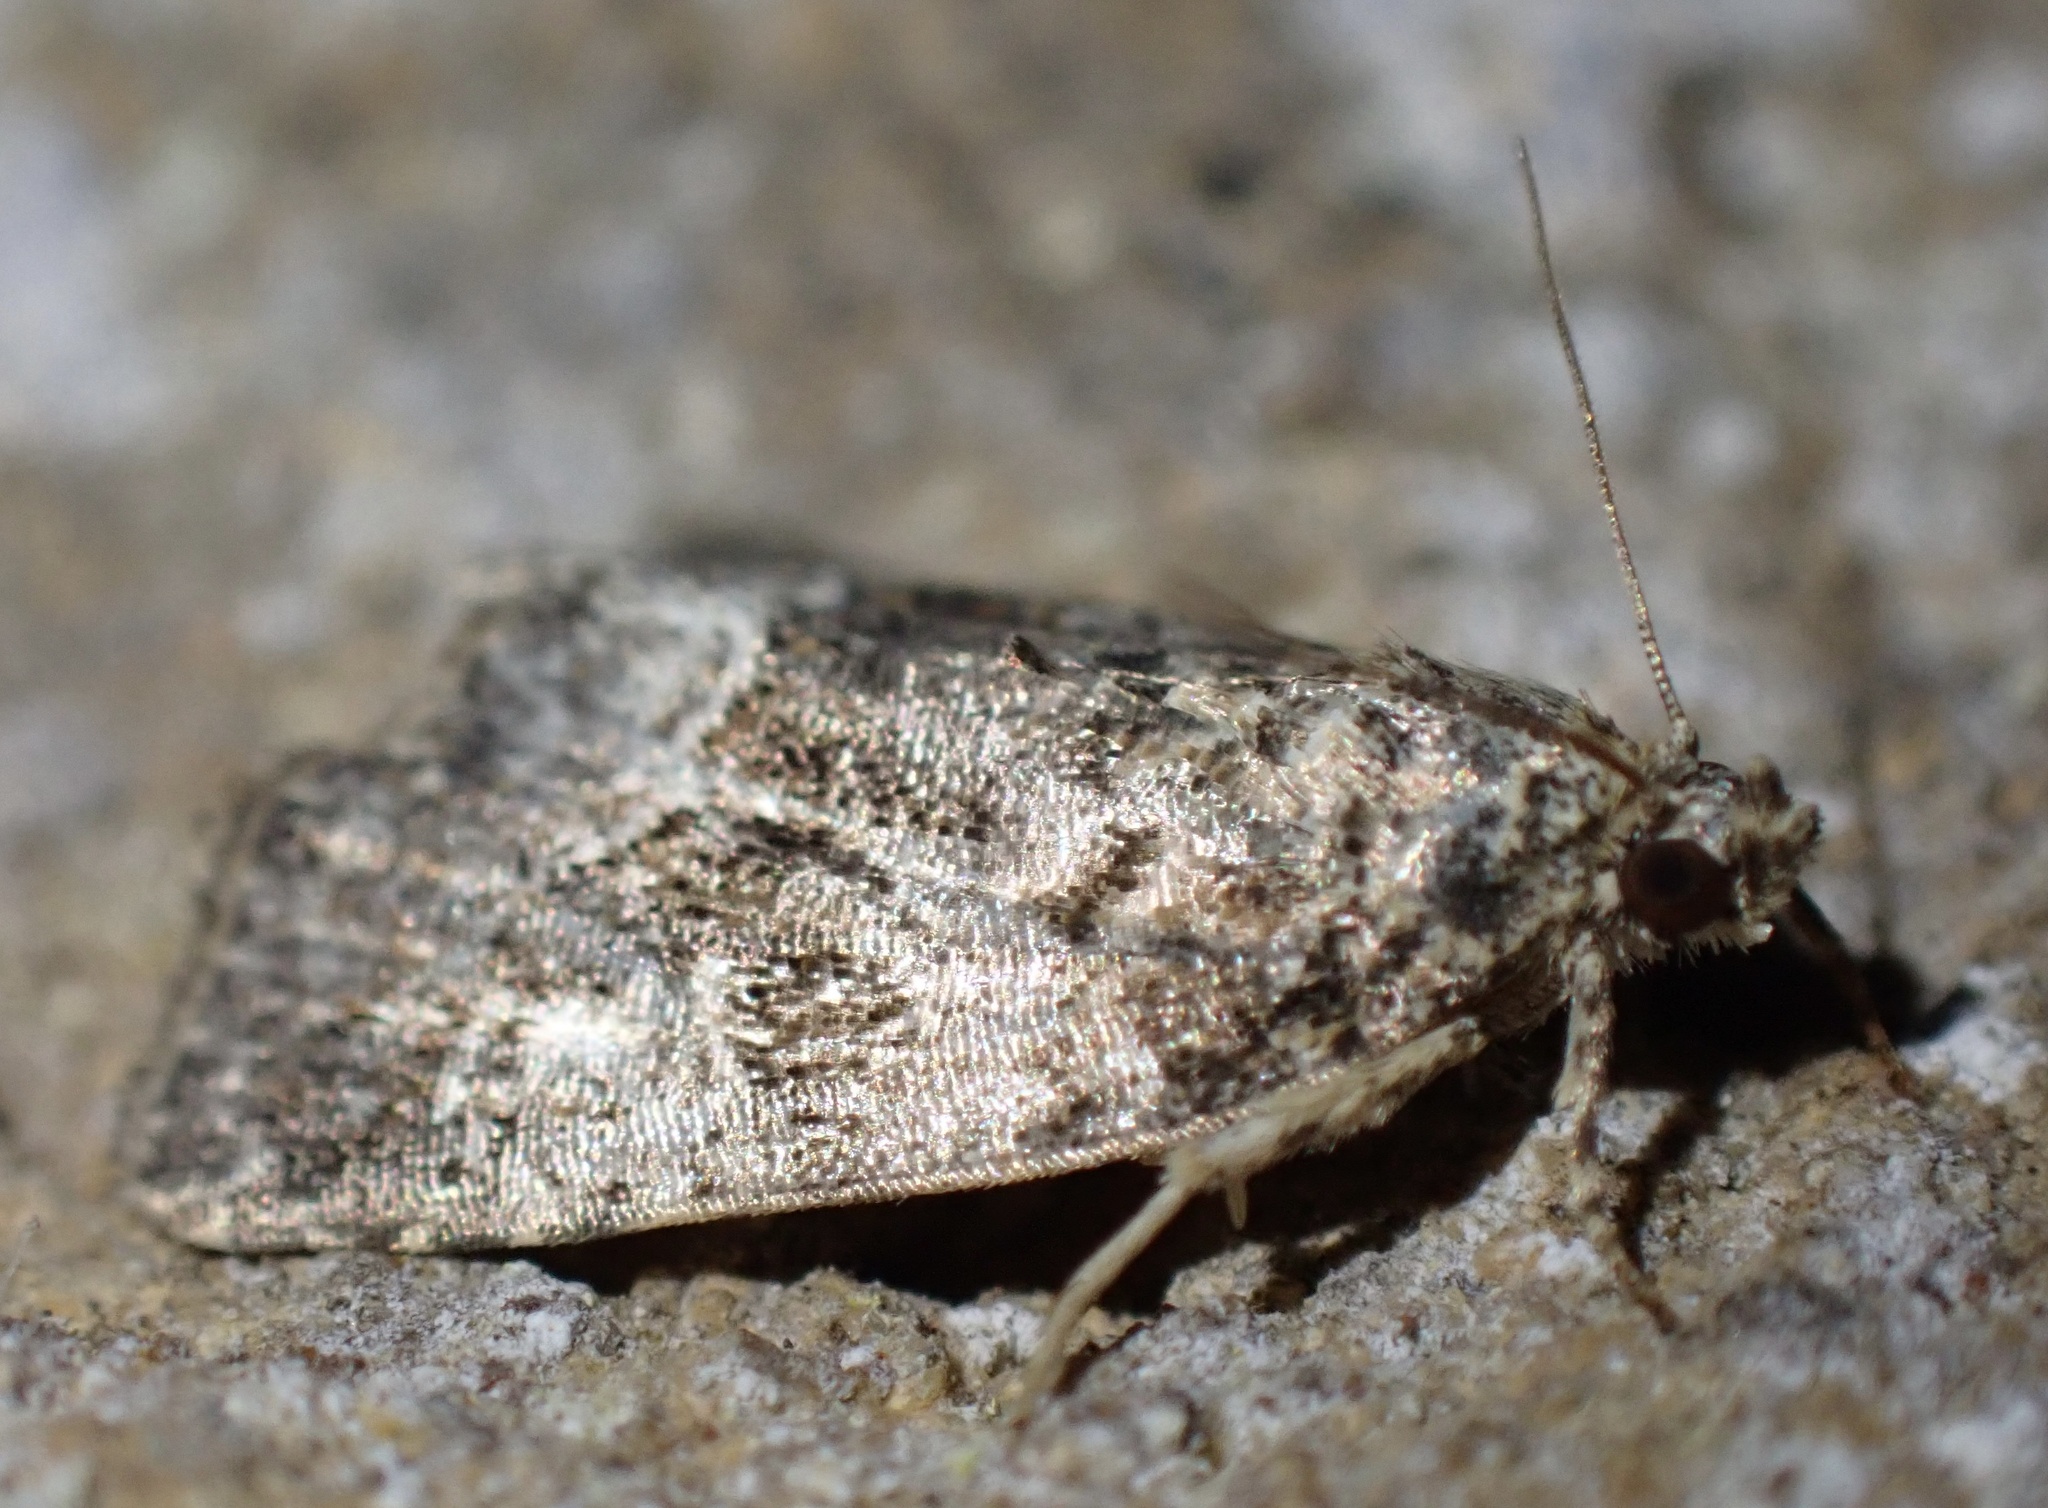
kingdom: Animalia
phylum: Arthropoda
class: Insecta
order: Lepidoptera
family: Noctuidae
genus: Deltote
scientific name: Deltote pygarga
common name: Marbled white spot
